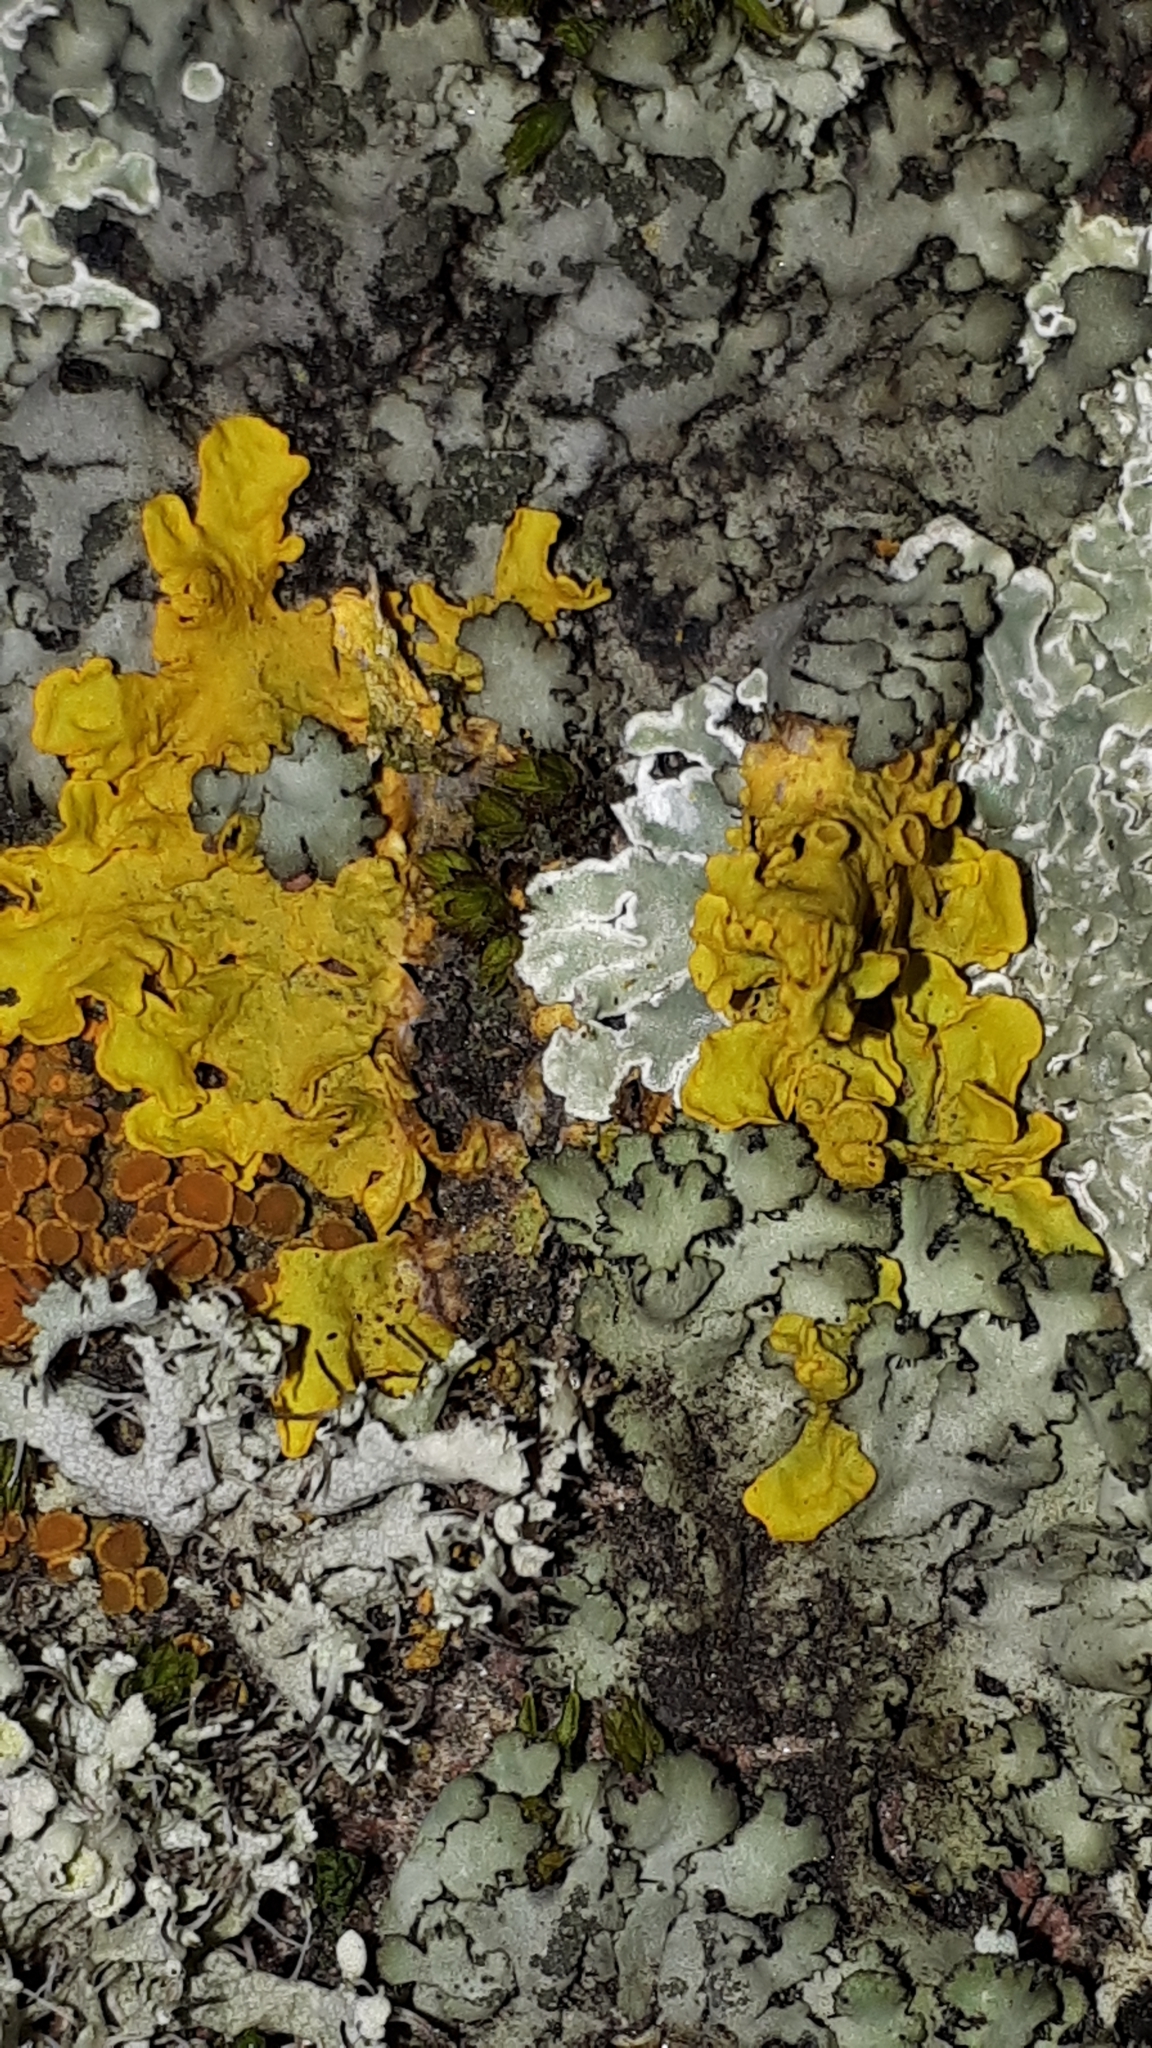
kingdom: Fungi
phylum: Ascomycota
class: Lecanoromycetes
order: Teloschistales
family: Teloschistaceae
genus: Xanthoria
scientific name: Xanthoria parietina
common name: Common orange lichen
